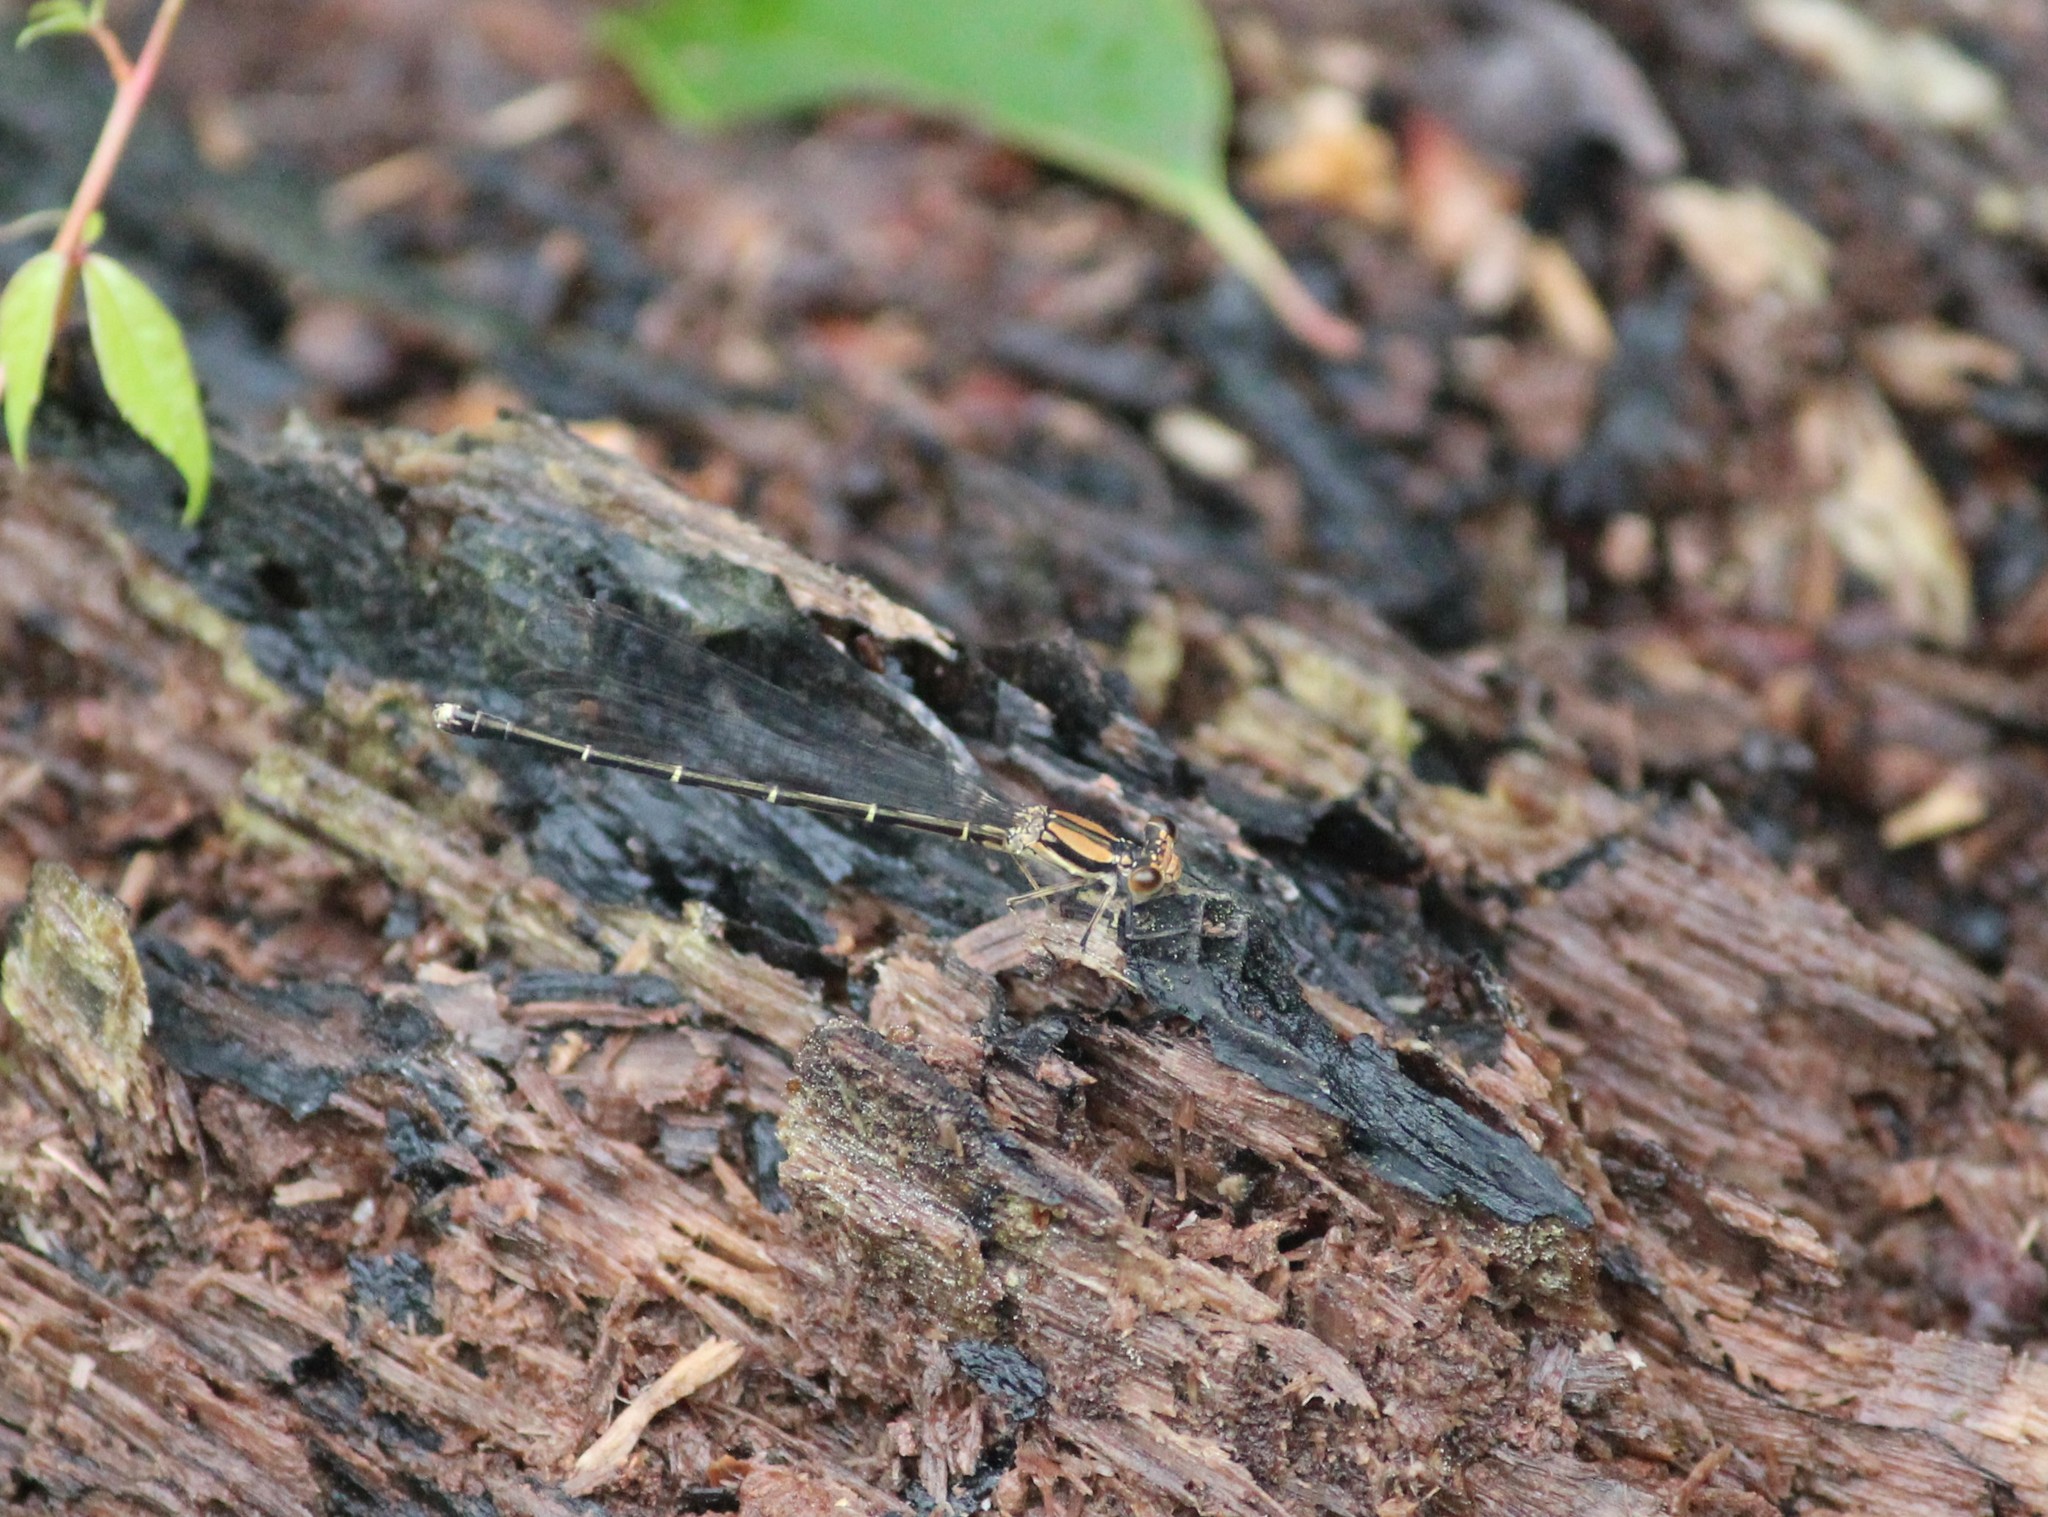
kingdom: Animalia
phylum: Arthropoda
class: Insecta
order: Odonata
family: Coenagrionidae
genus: Argia
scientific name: Argia tibialis
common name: Blue-tipped dancer
